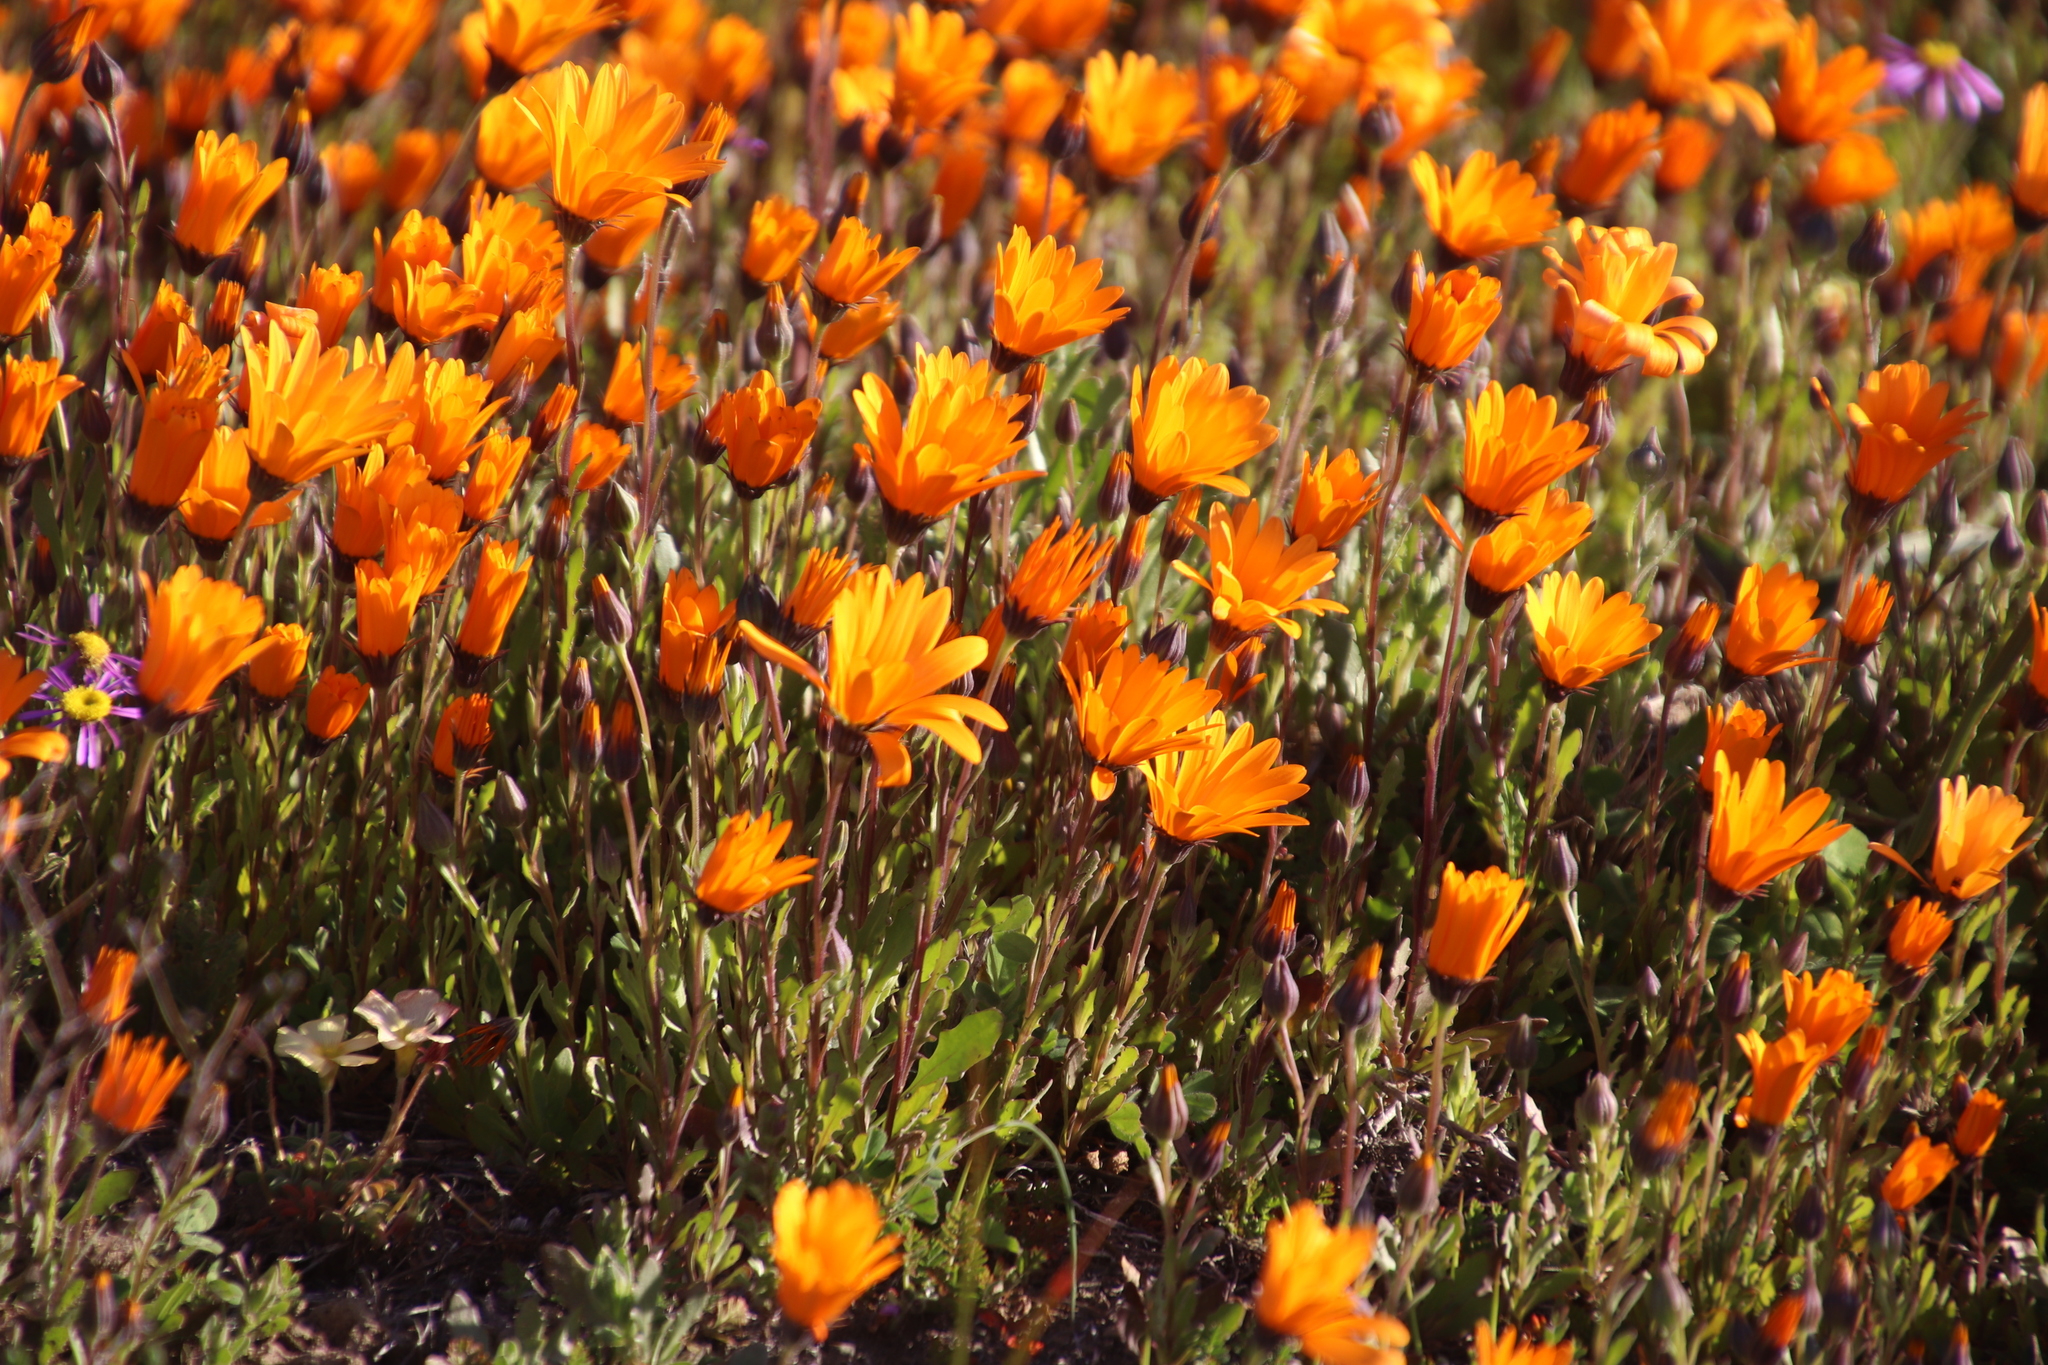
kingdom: Plantae
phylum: Tracheophyta
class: Magnoliopsida
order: Asterales
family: Asteraceae
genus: Dimorphotheca
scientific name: Dimorphotheca sinuata
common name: Glandular cape marigold
